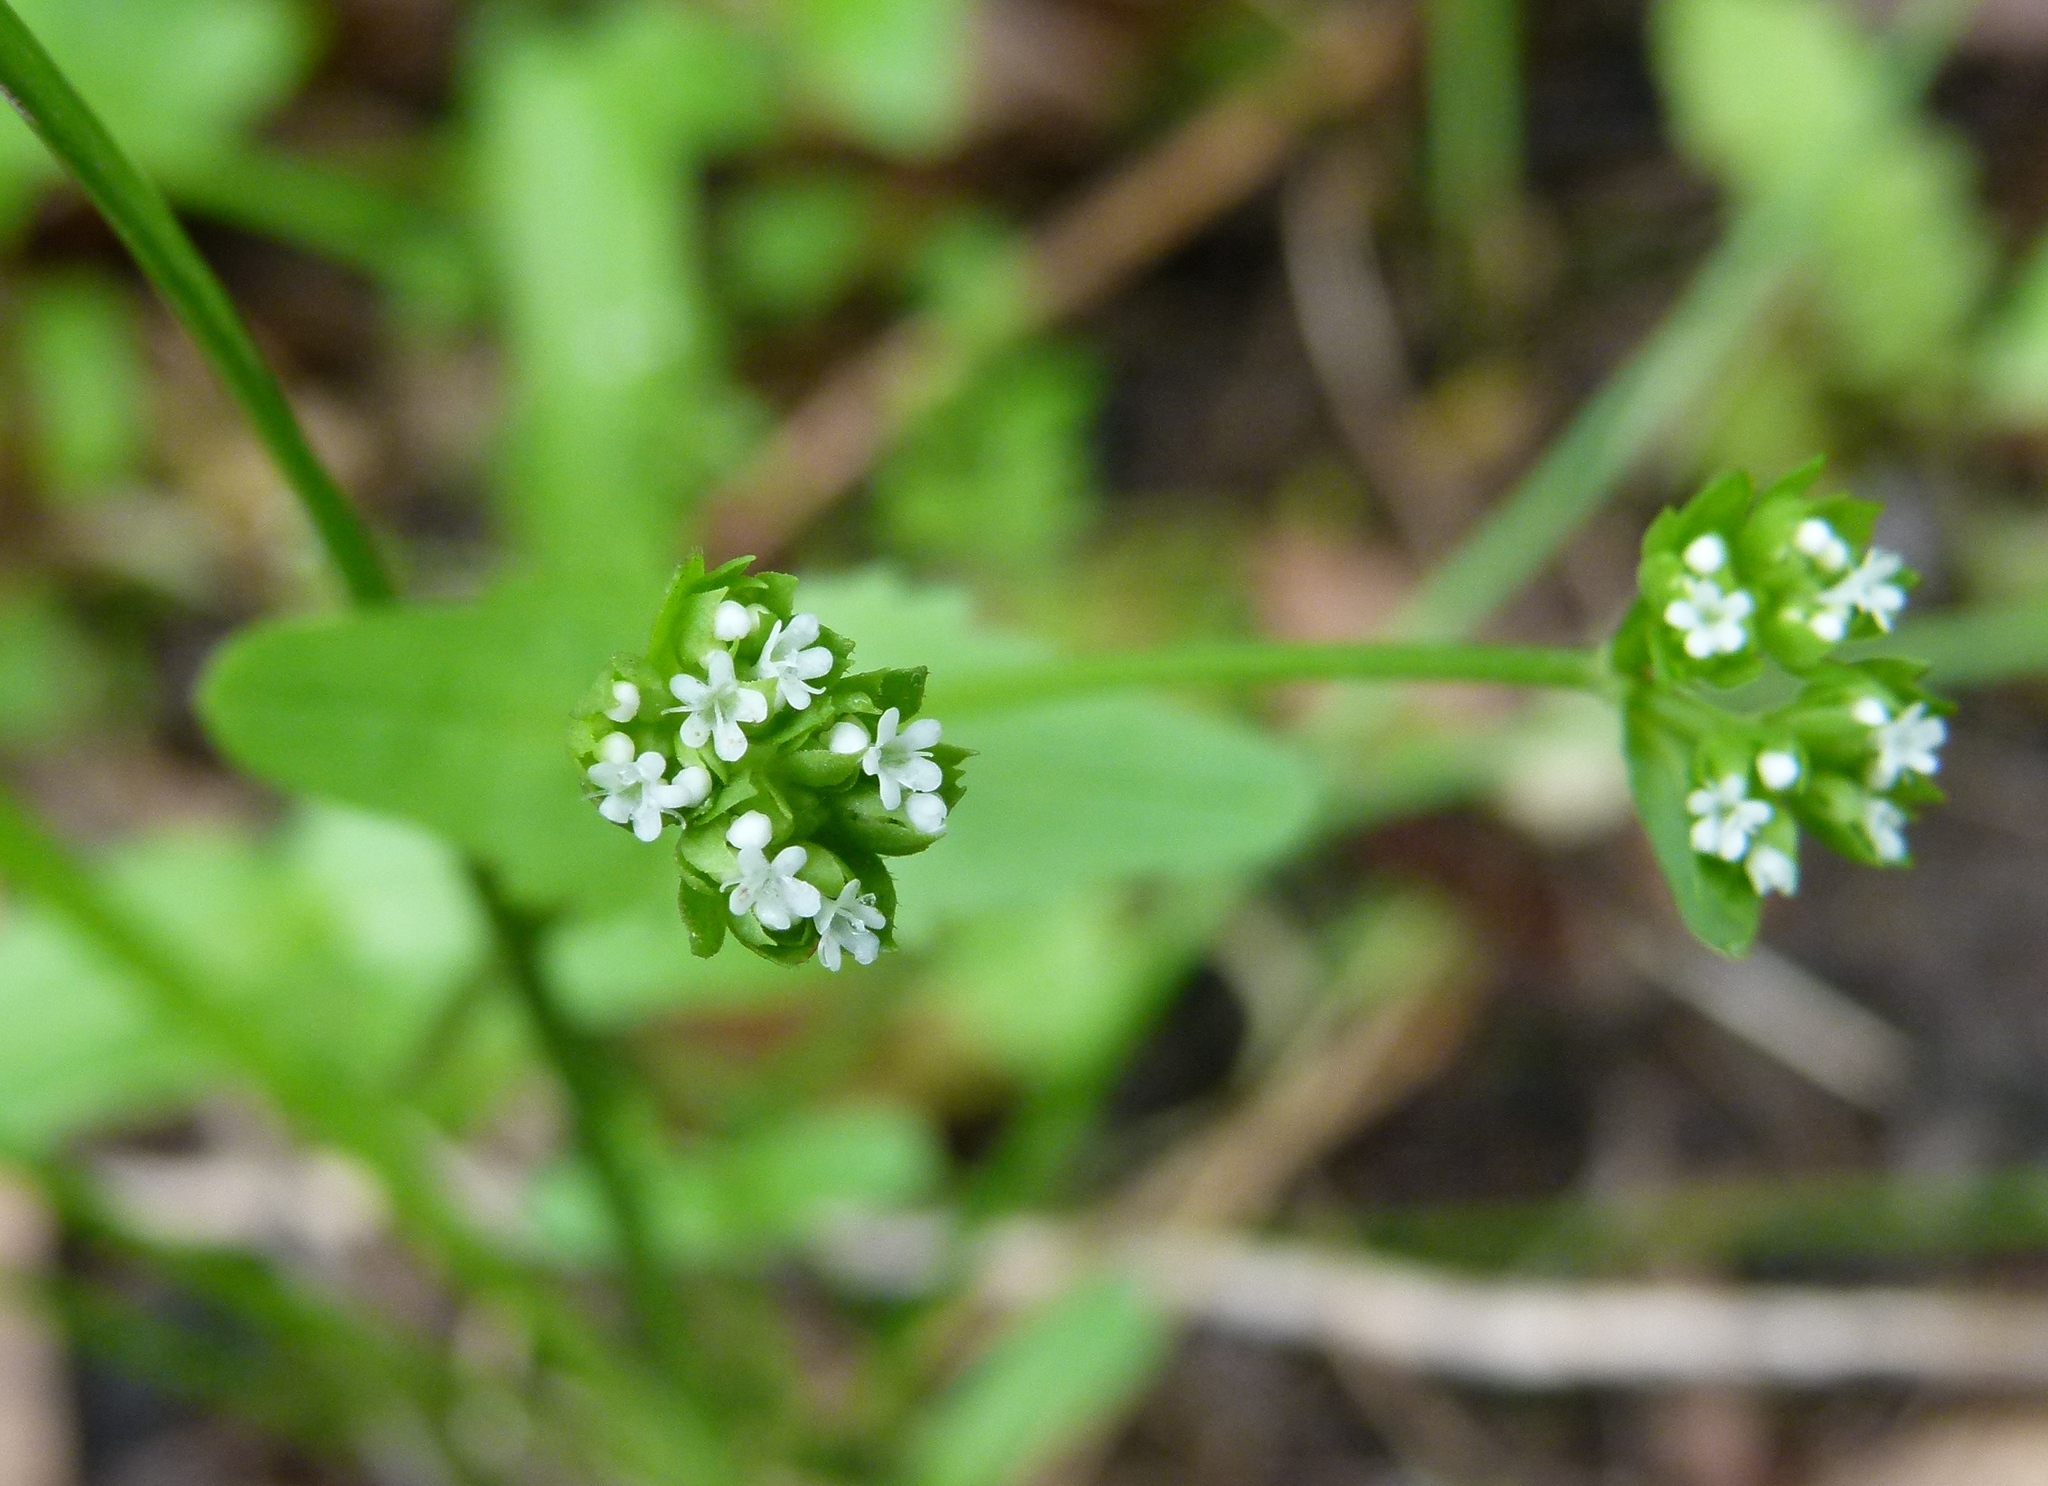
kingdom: Plantae
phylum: Tracheophyta
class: Magnoliopsida
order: Dipsacales
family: Caprifoliaceae
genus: Valerianella
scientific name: Valerianella radiata
